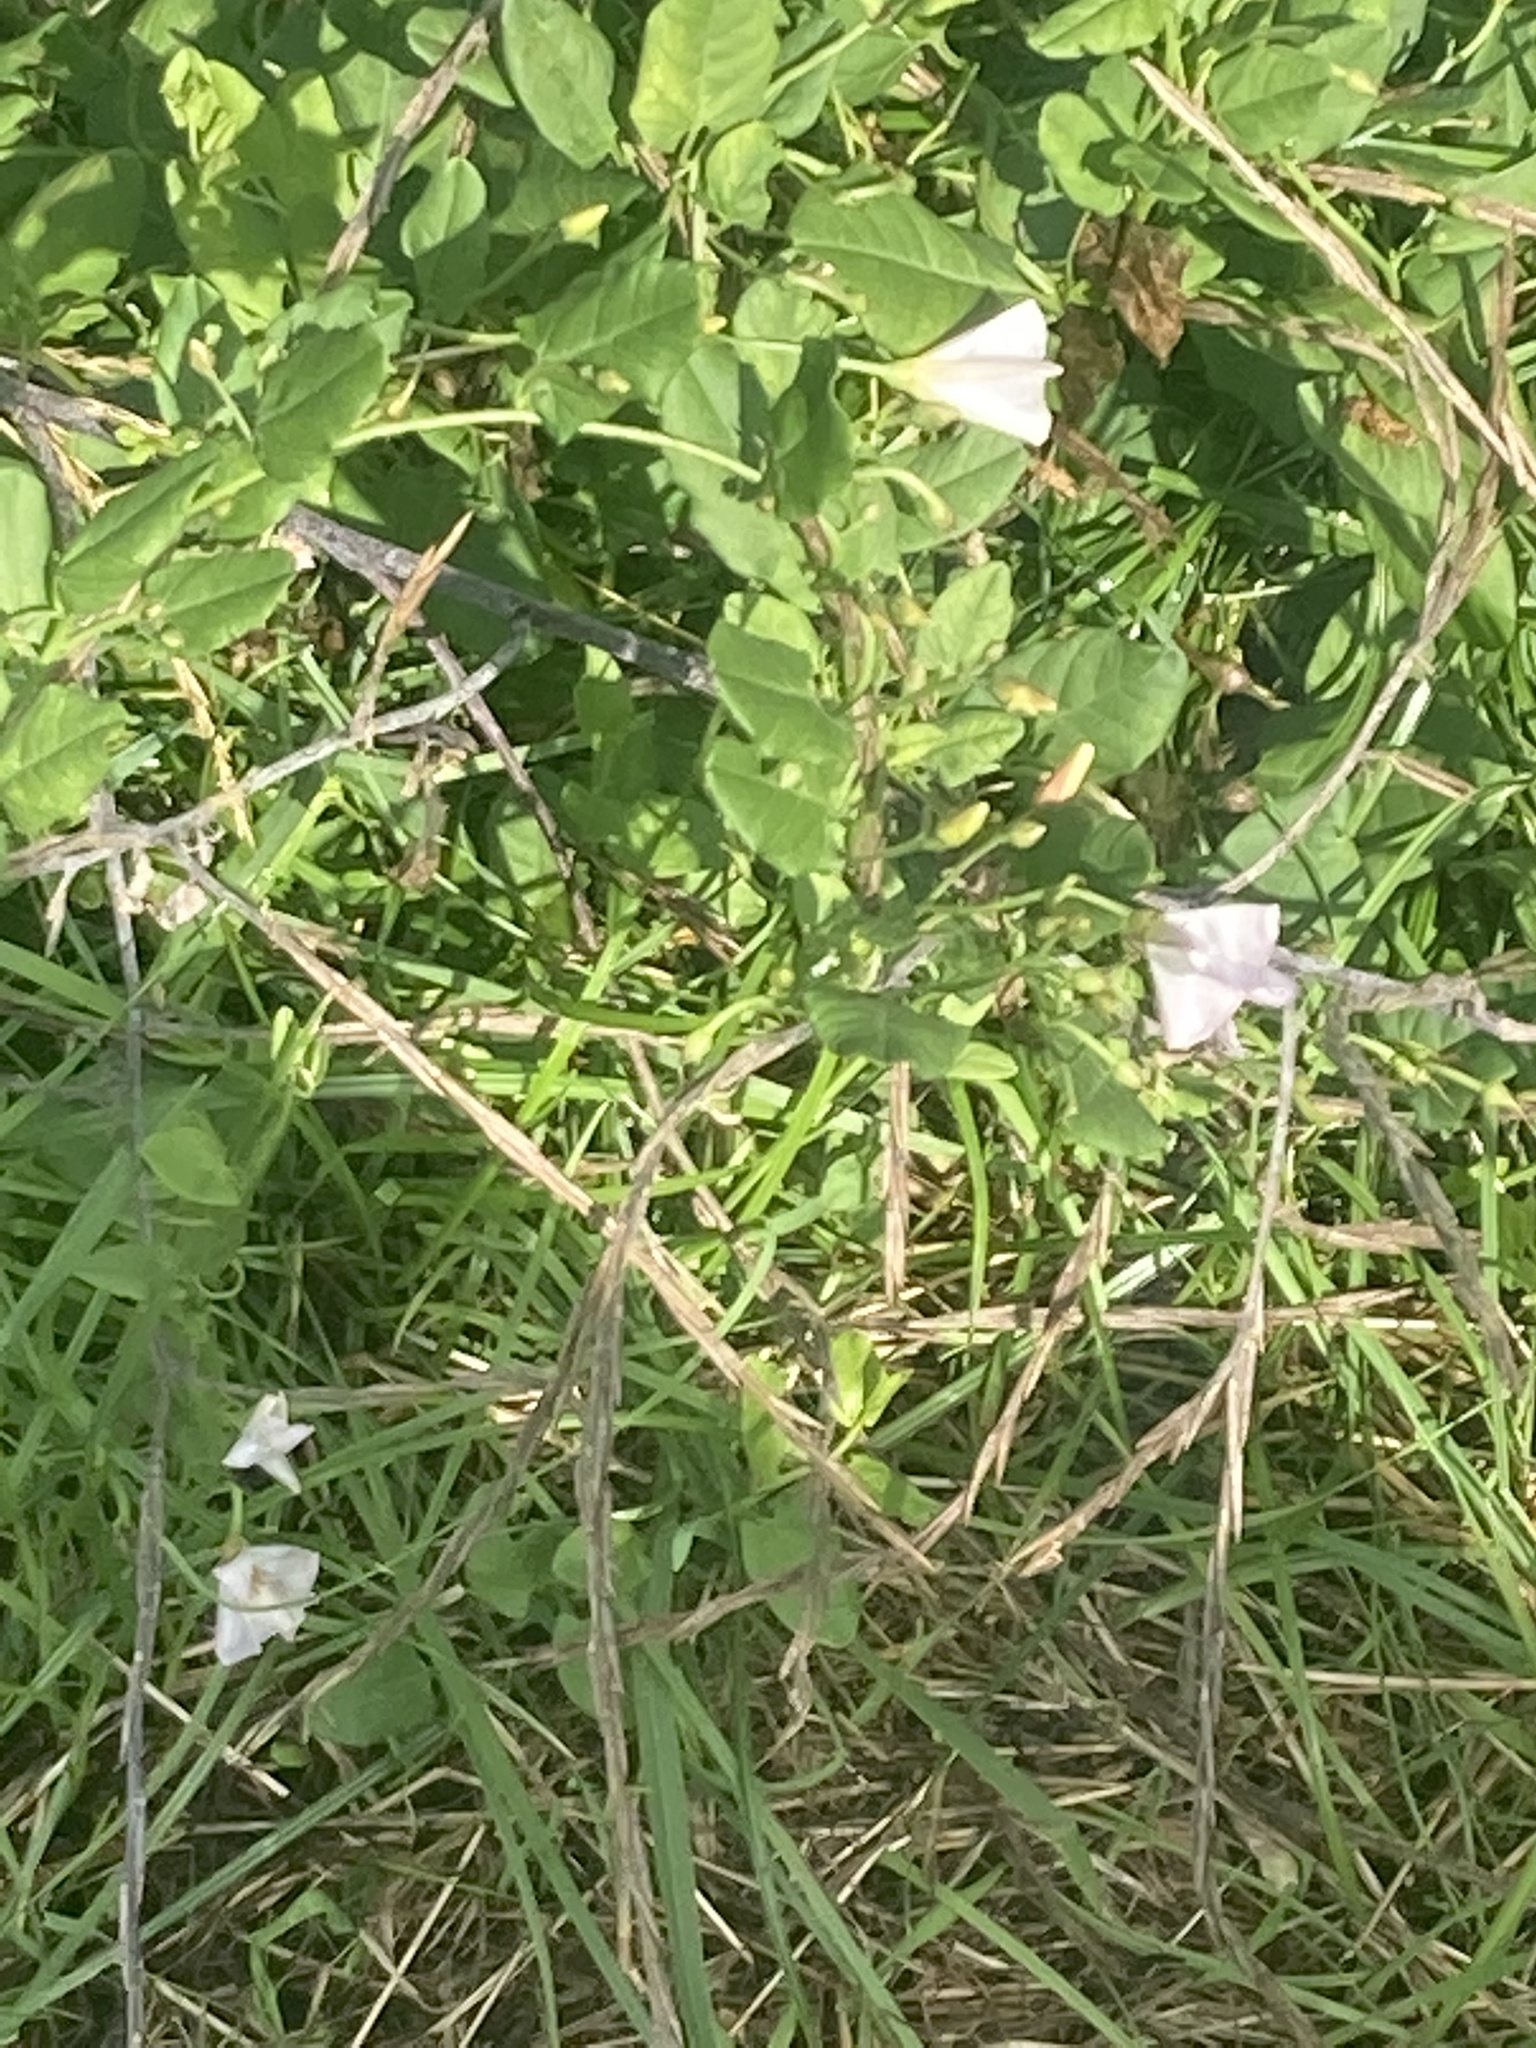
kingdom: Plantae
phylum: Tracheophyta
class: Magnoliopsida
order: Solanales
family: Convolvulaceae
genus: Convolvulus
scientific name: Convolvulus arvensis
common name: Field bindweed
